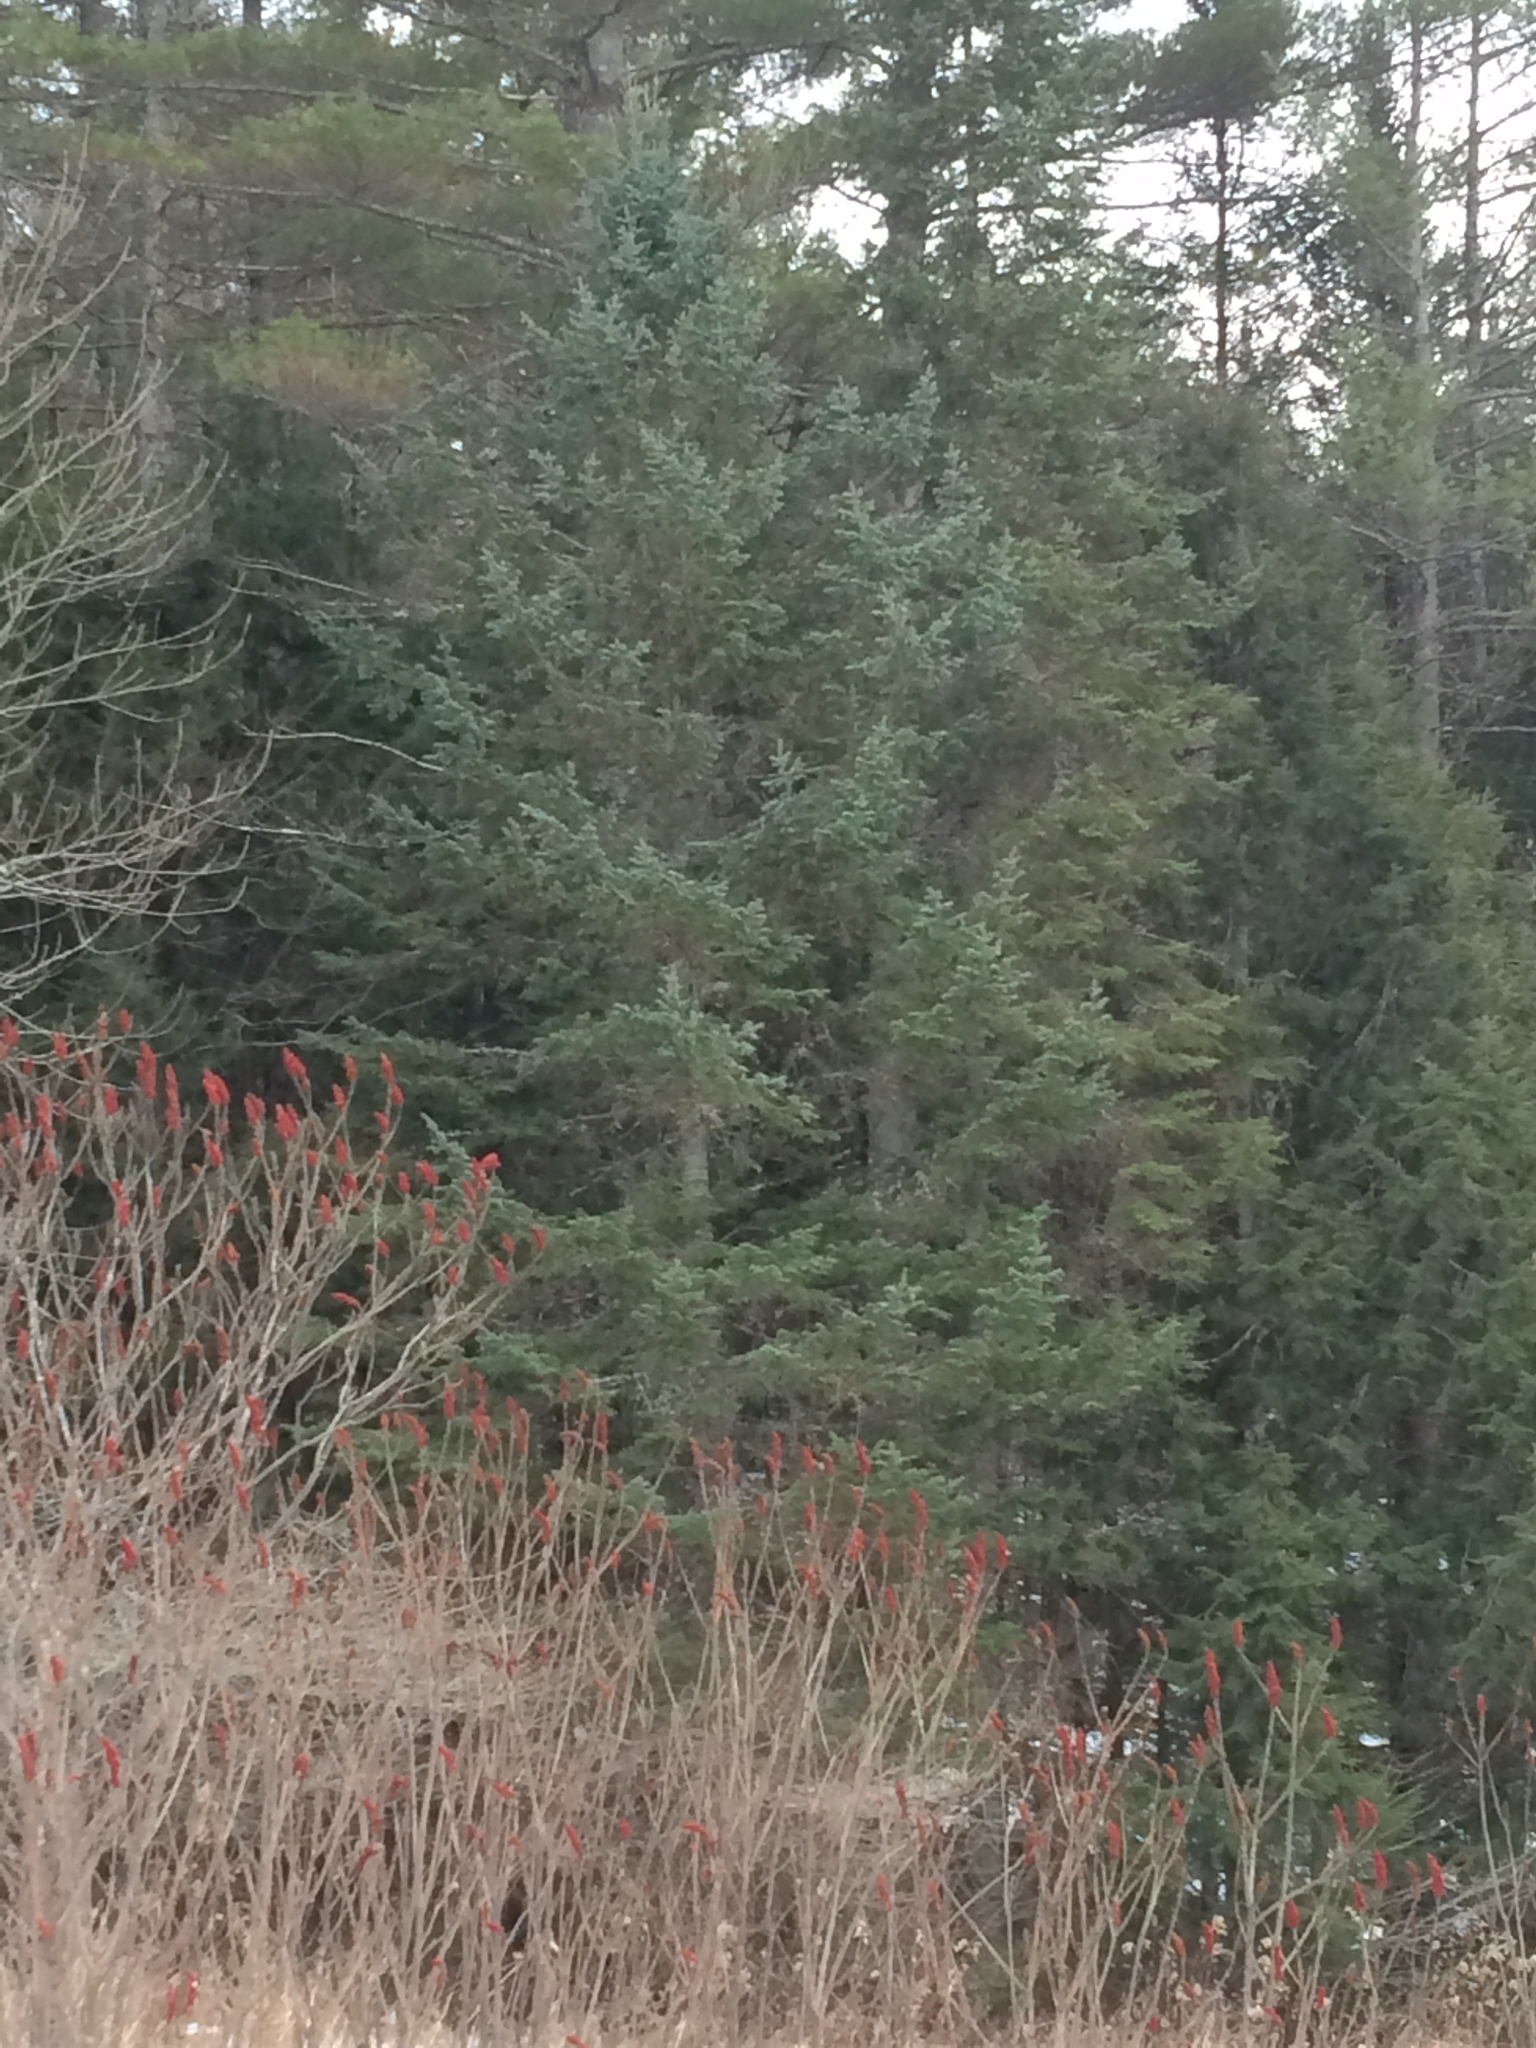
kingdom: Plantae
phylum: Tracheophyta
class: Pinopsida
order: Pinales
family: Pinaceae
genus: Abies
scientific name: Abies balsamea
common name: Balsam fir
